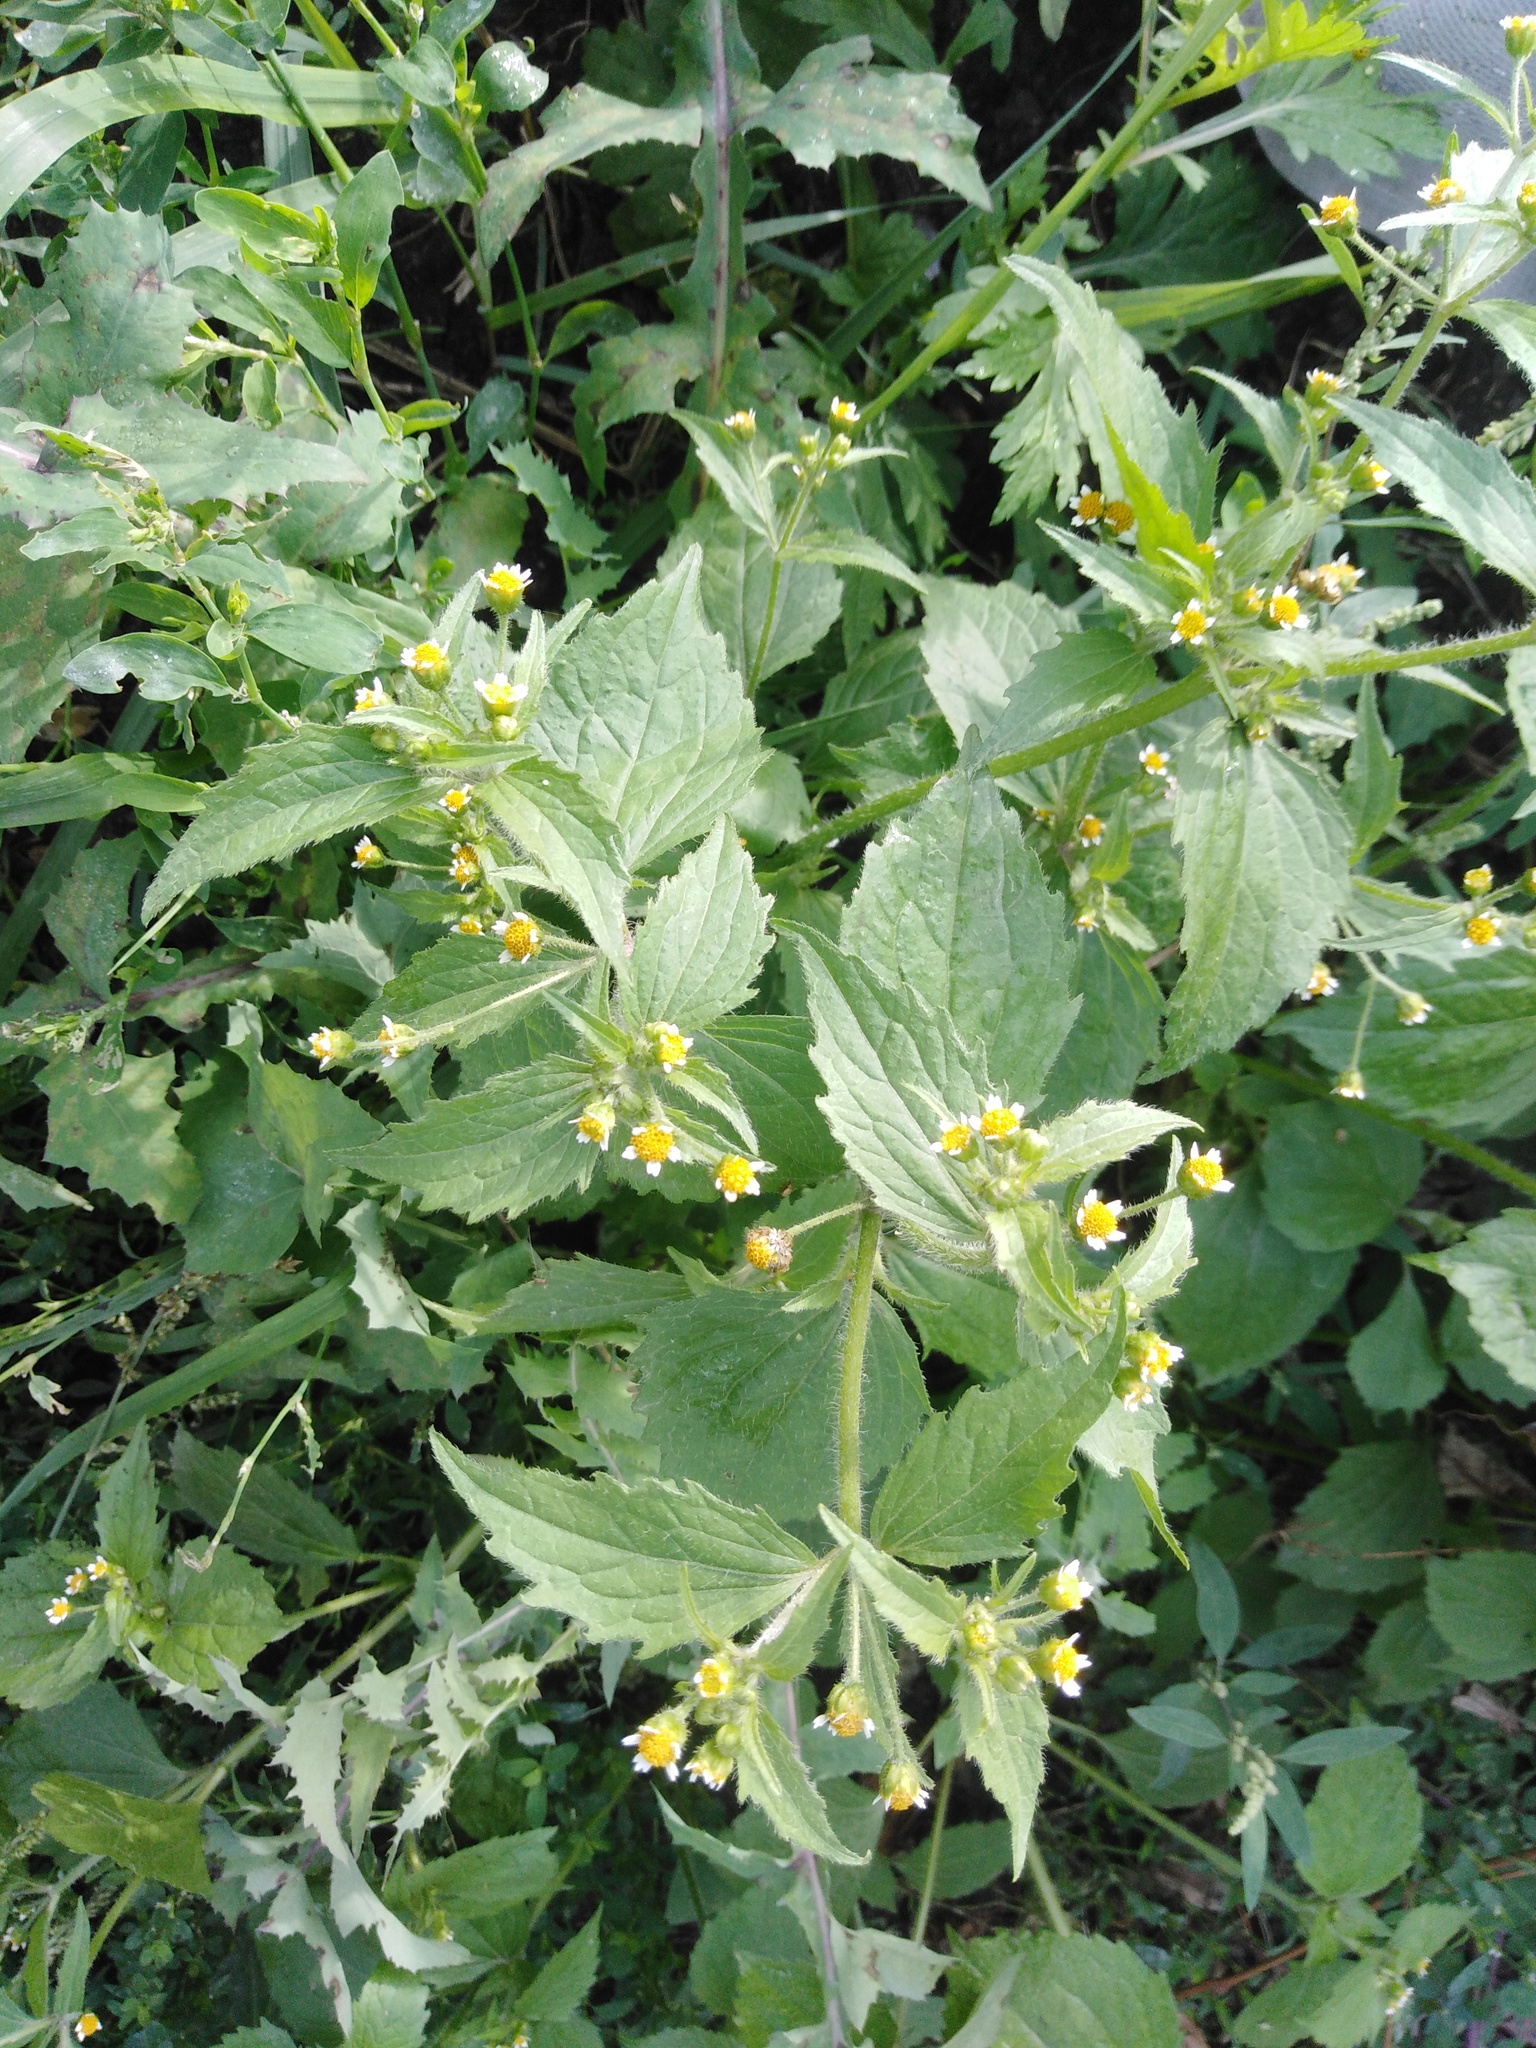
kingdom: Plantae
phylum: Tracheophyta
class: Magnoliopsida
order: Asterales
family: Asteraceae
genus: Galinsoga
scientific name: Galinsoga quadriradiata
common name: Shaggy soldier
